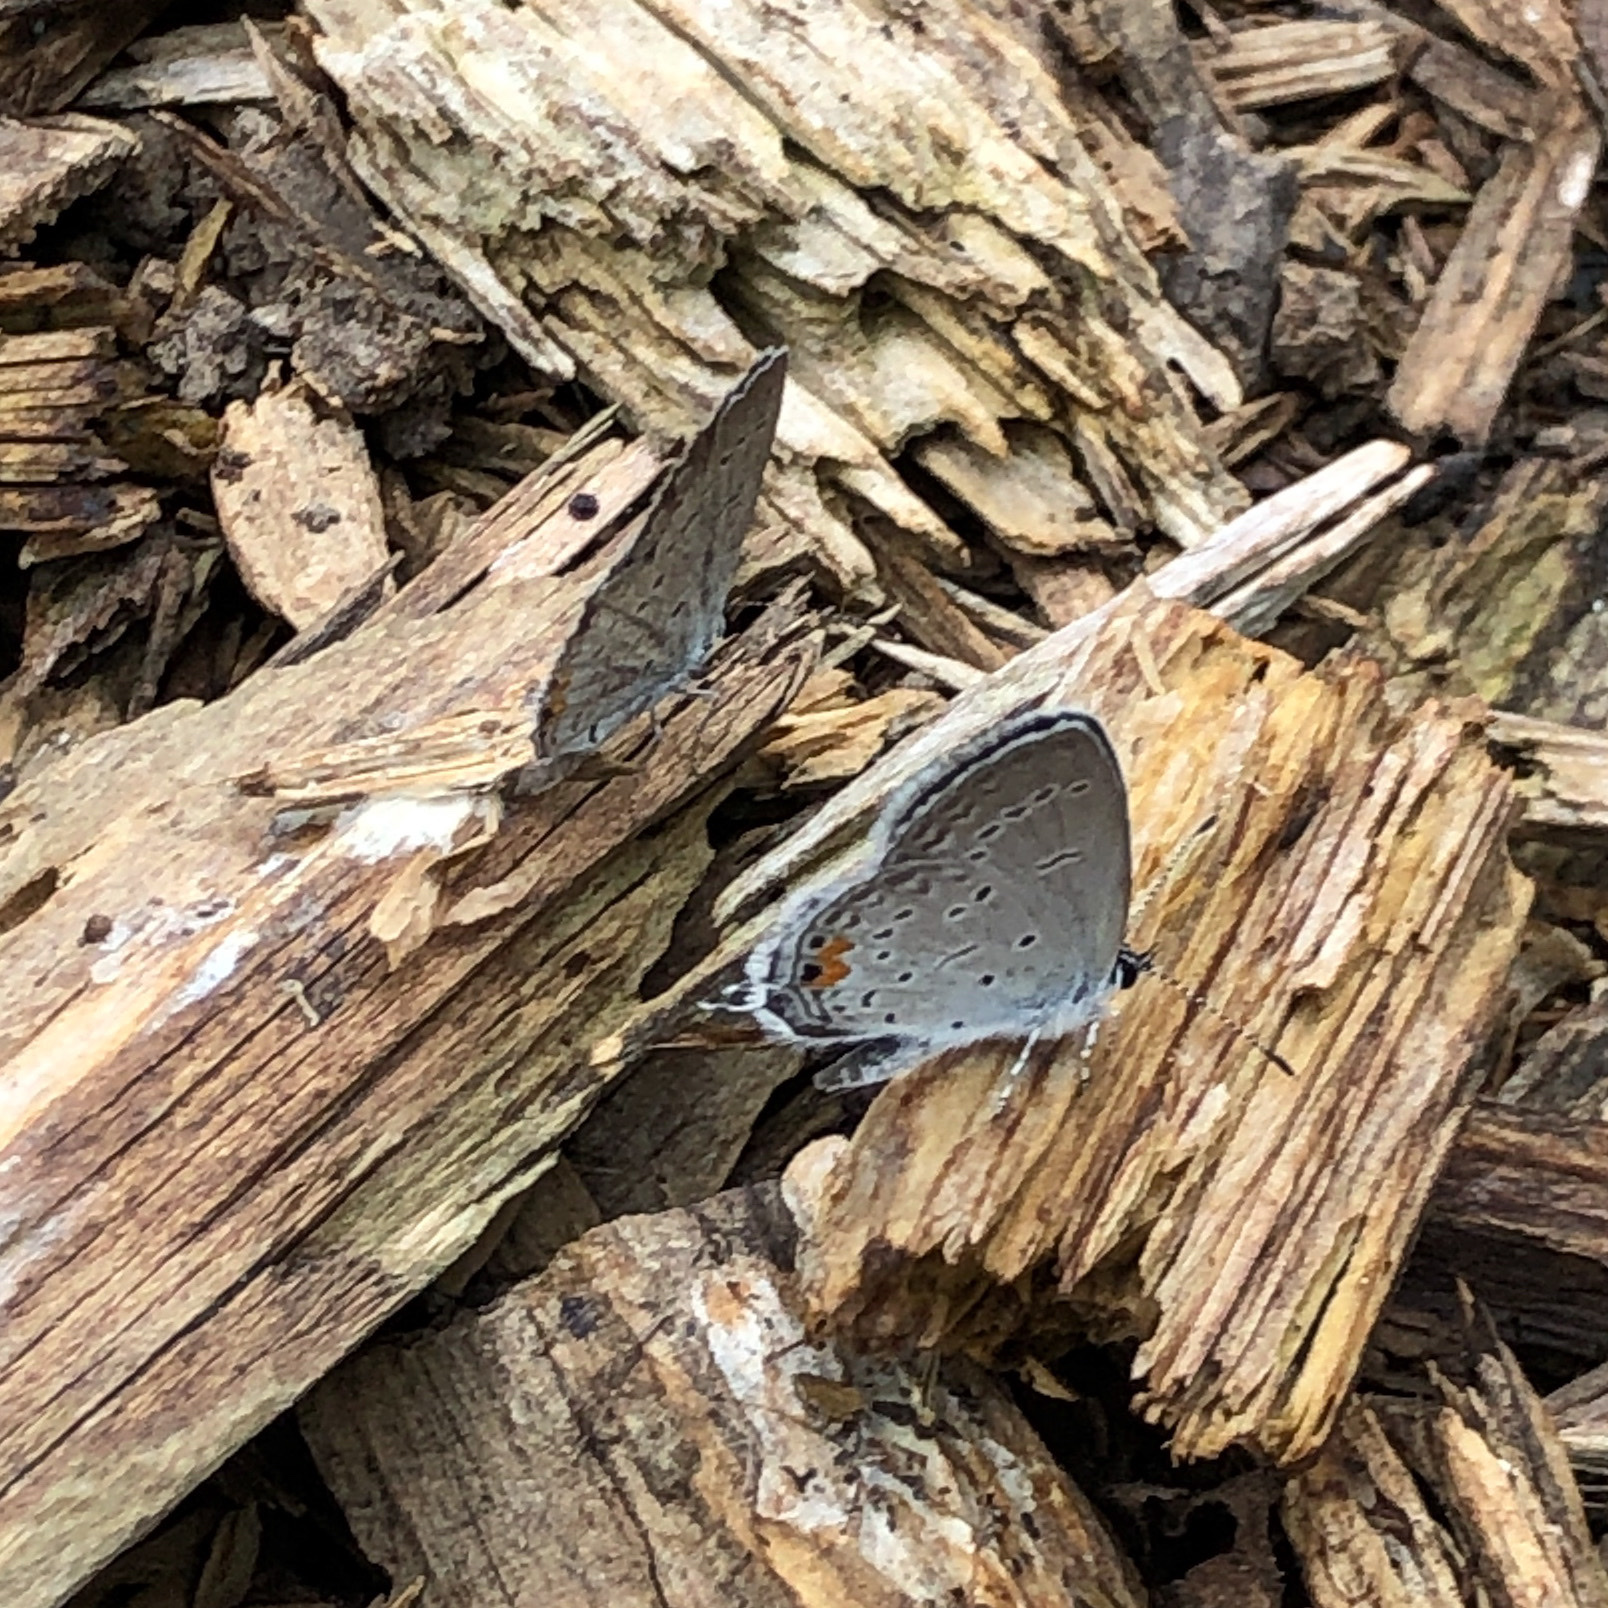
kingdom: Animalia
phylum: Arthropoda
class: Insecta
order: Lepidoptera
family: Lycaenidae
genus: Elkalyce
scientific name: Elkalyce comyntas
